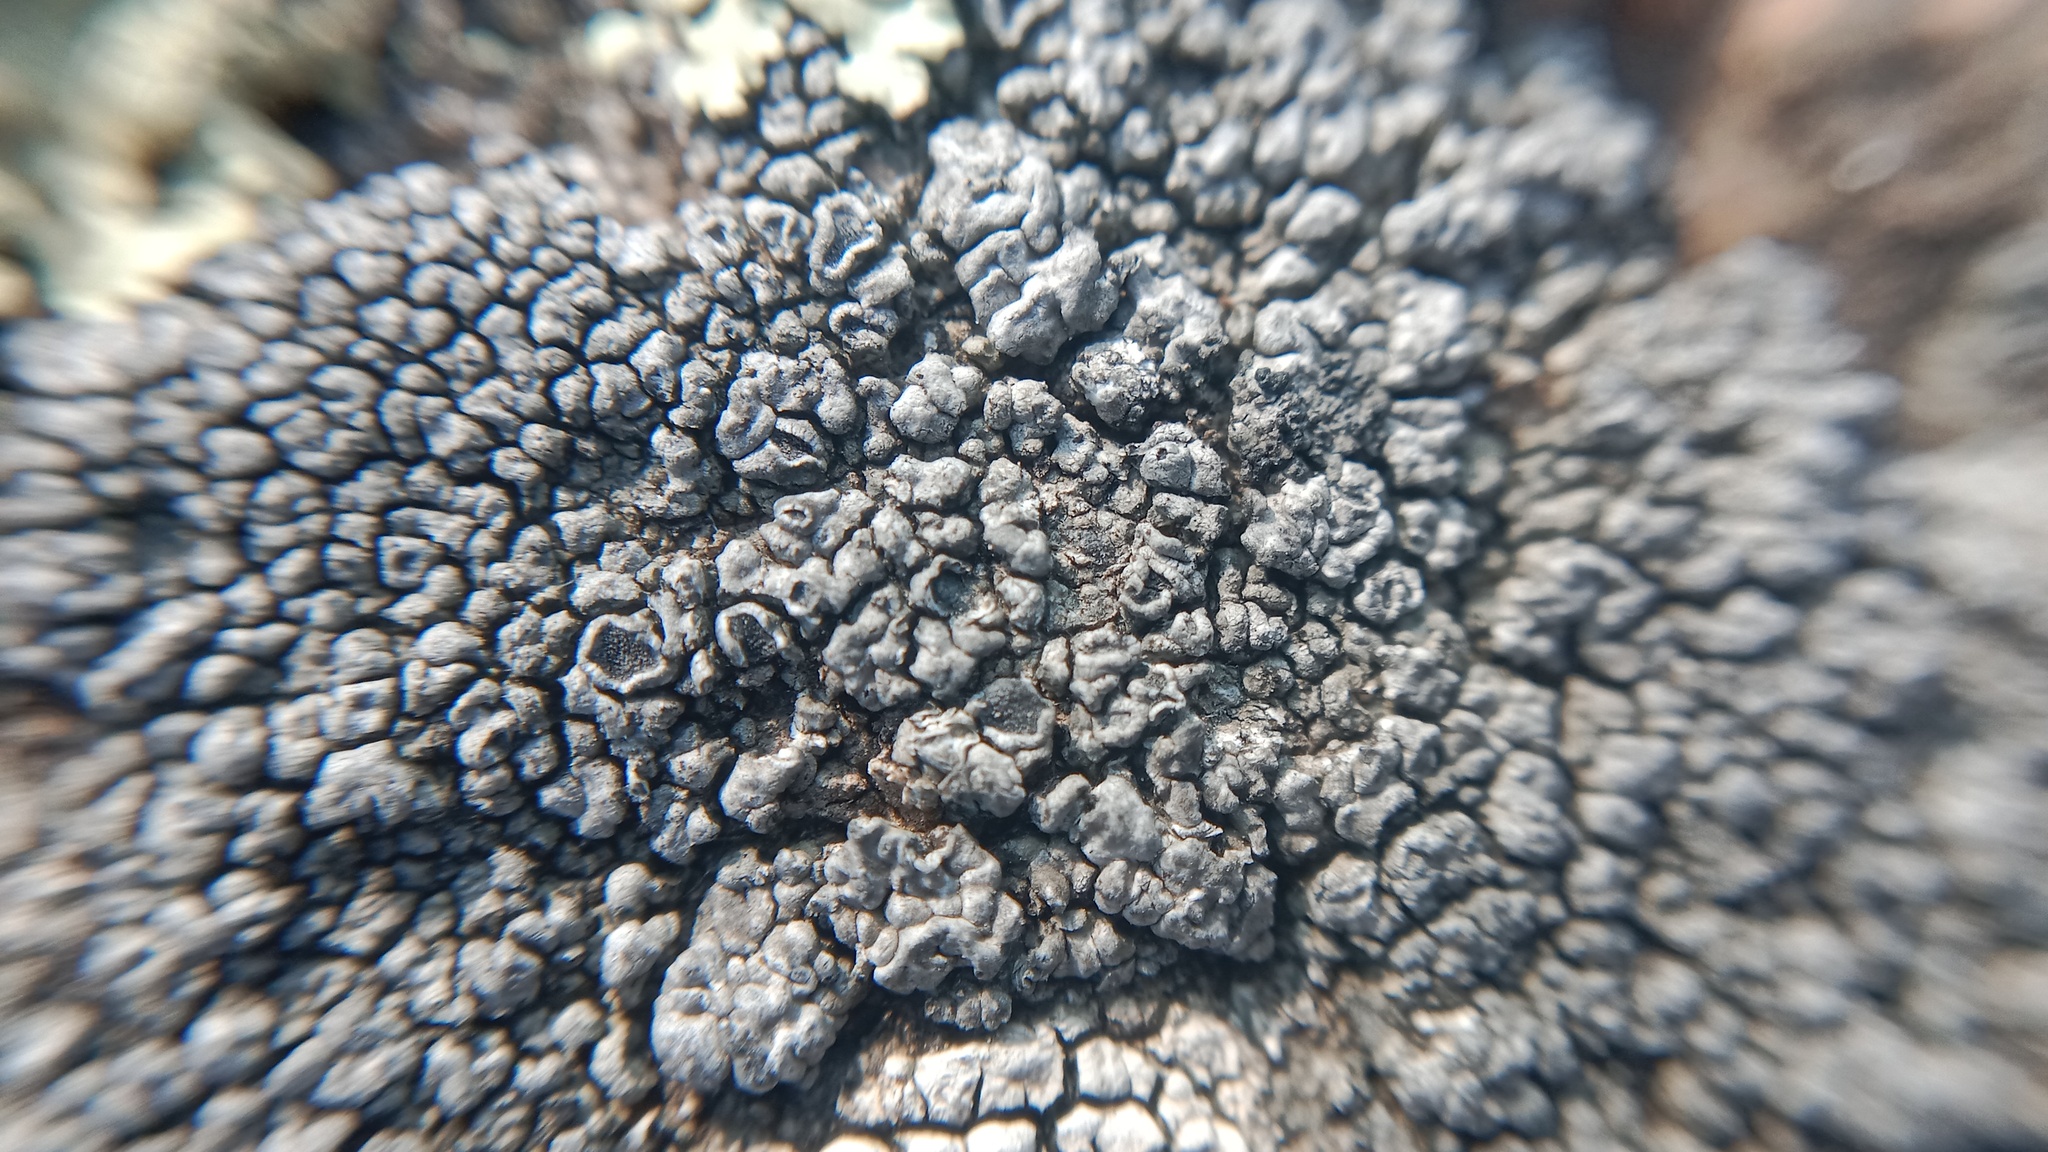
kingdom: Fungi
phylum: Ascomycota
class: Lecanoromycetes
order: Pertusariales
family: Megasporaceae
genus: Aspiciliella
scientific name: Aspiciliella intermutans
